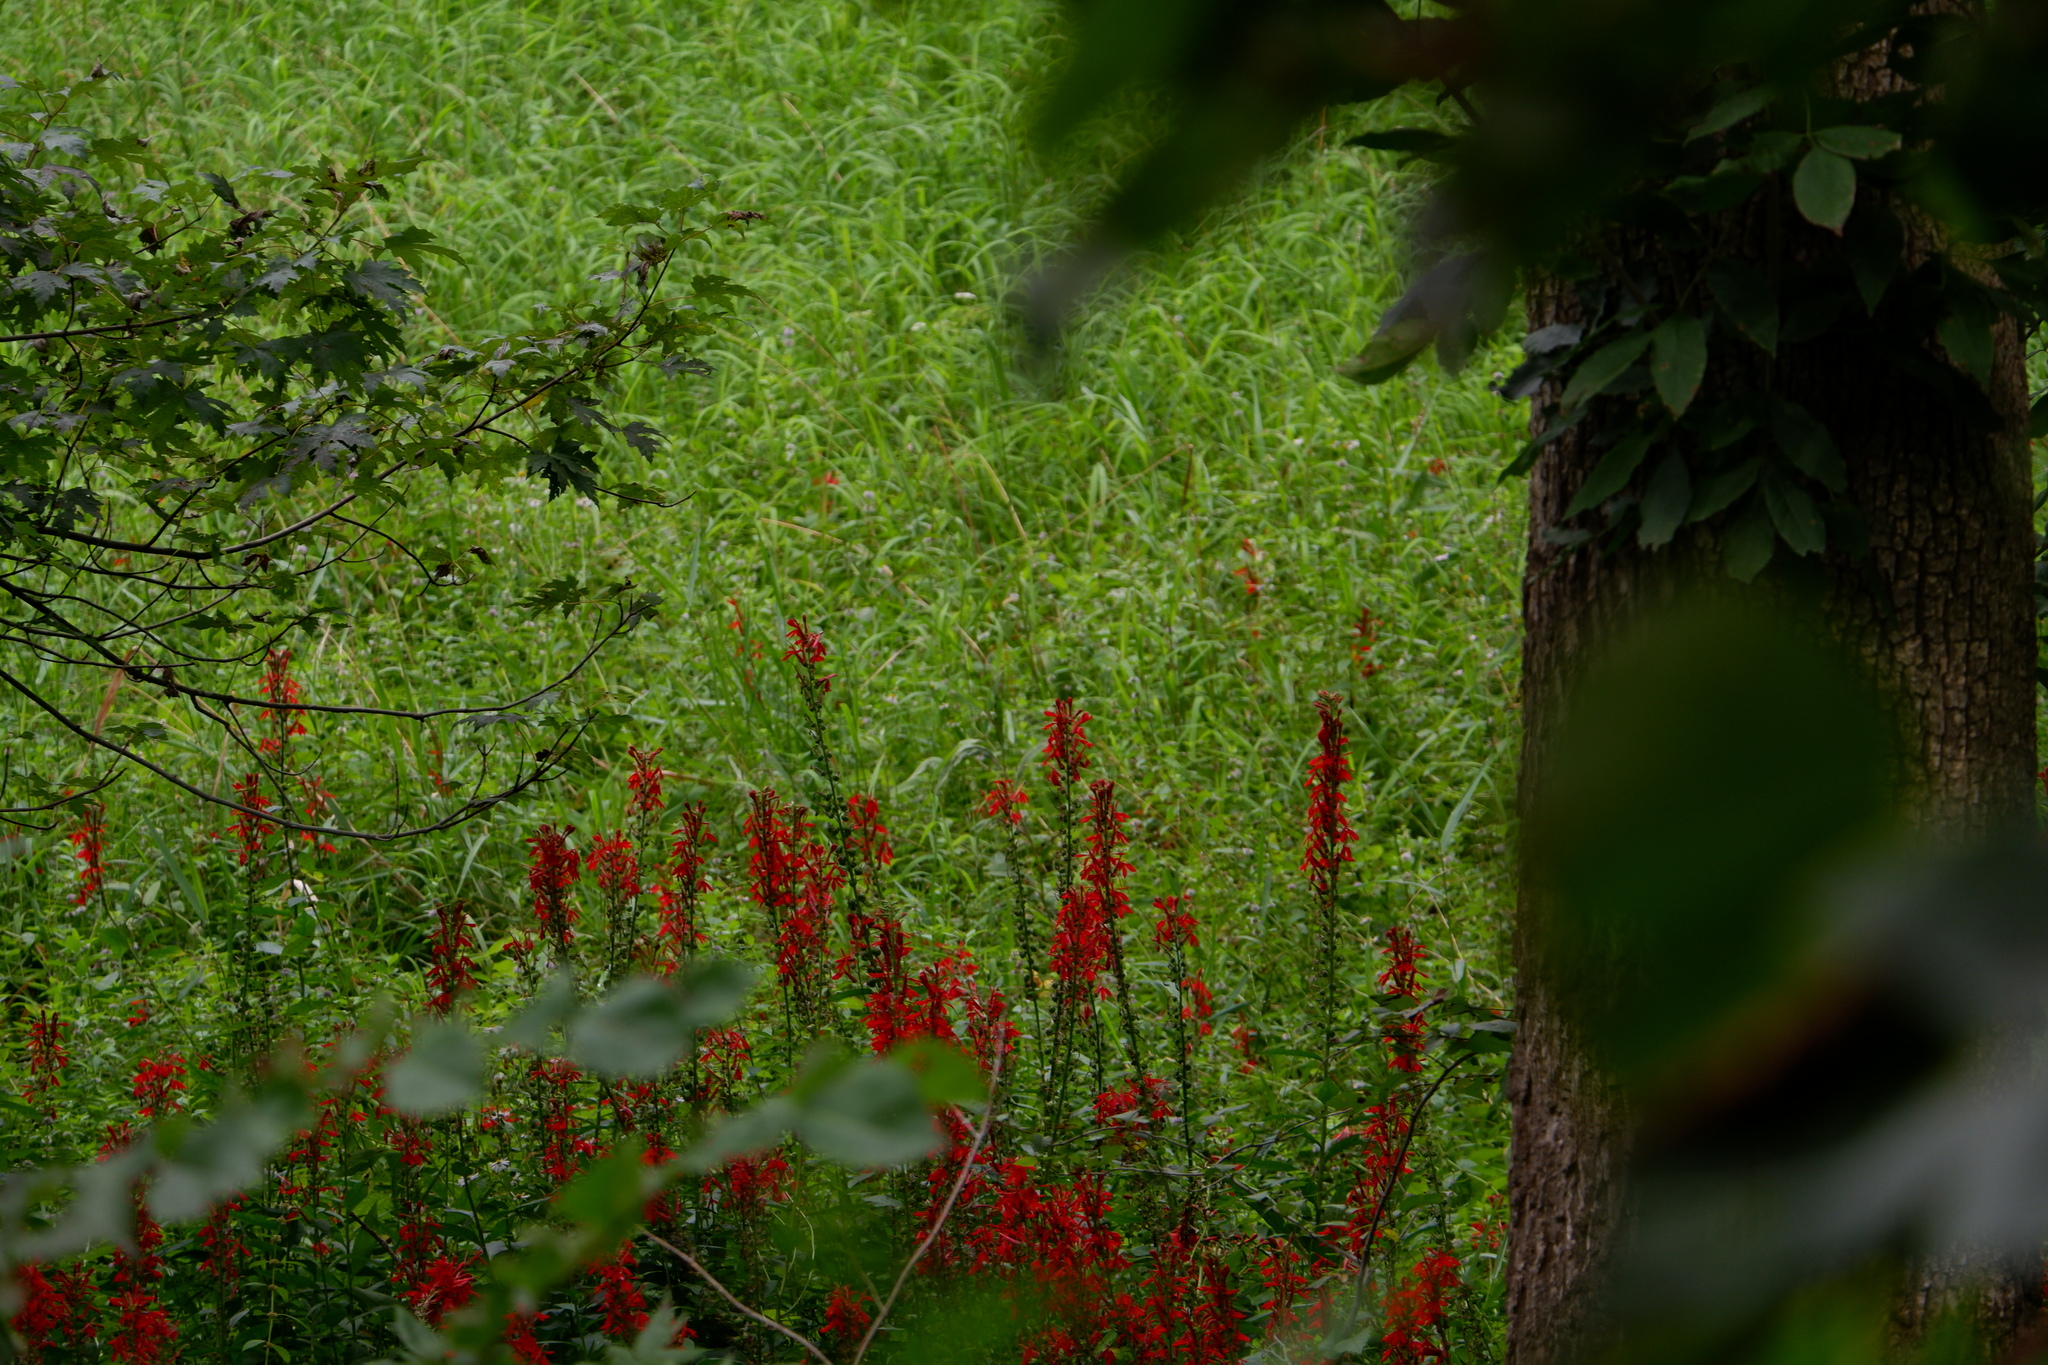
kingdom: Plantae
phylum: Tracheophyta
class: Magnoliopsida
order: Asterales
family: Campanulaceae
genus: Lobelia
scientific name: Lobelia cardinalis
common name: Cardinal flower
